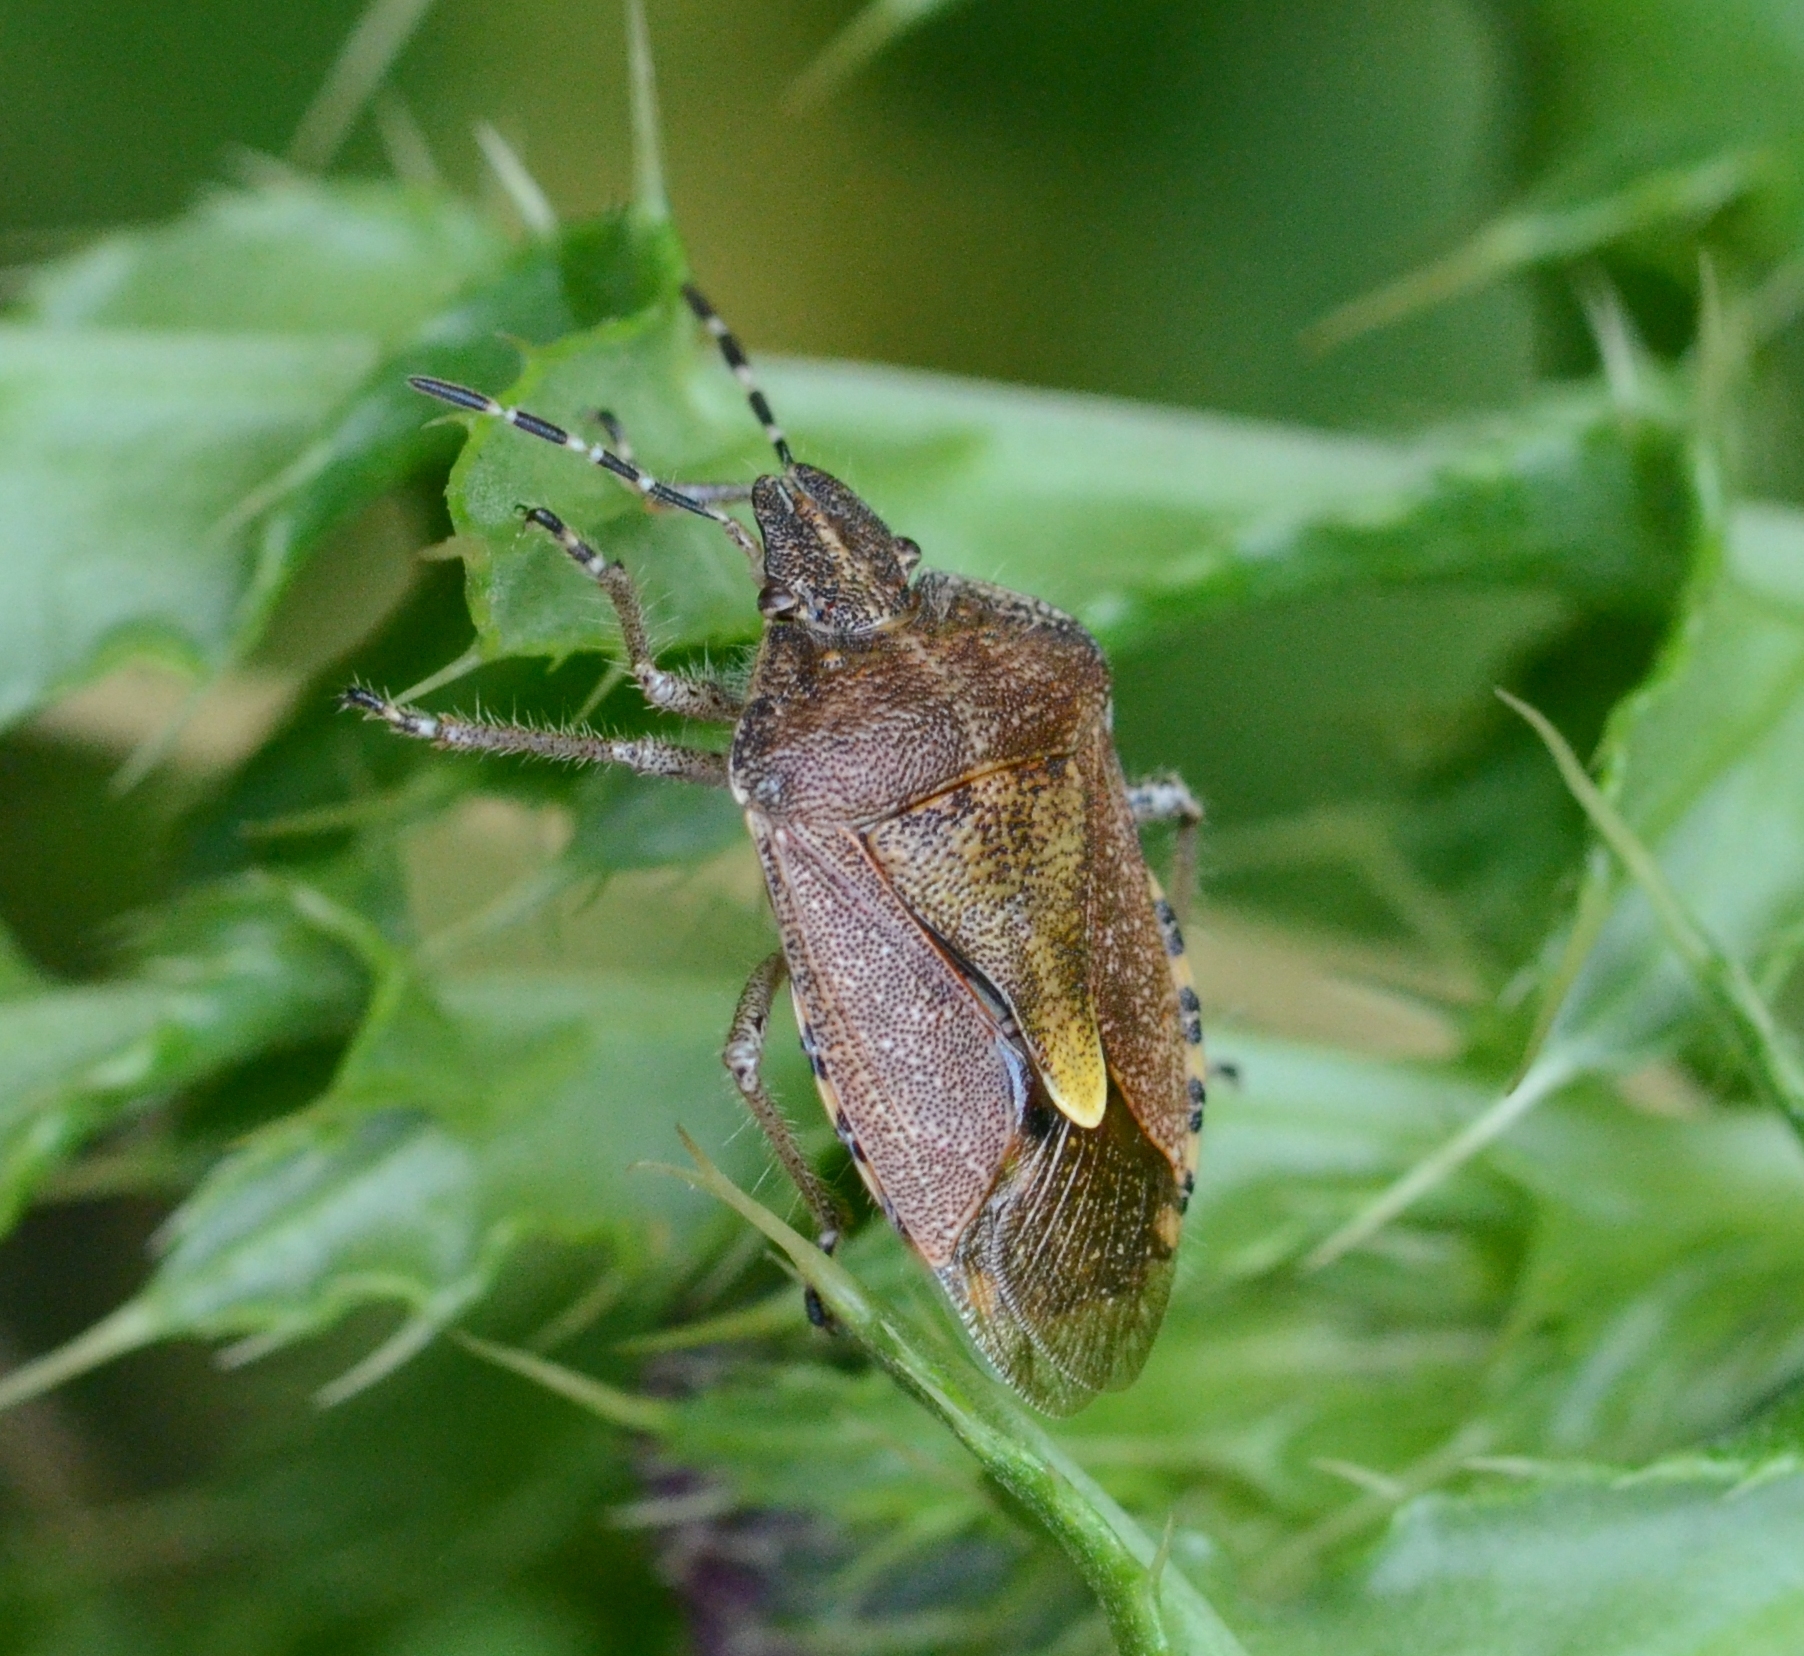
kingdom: Animalia
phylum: Arthropoda
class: Insecta
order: Hemiptera
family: Pentatomidae
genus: Dolycoris
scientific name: Dolycoris baccarum
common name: Sloe bug
